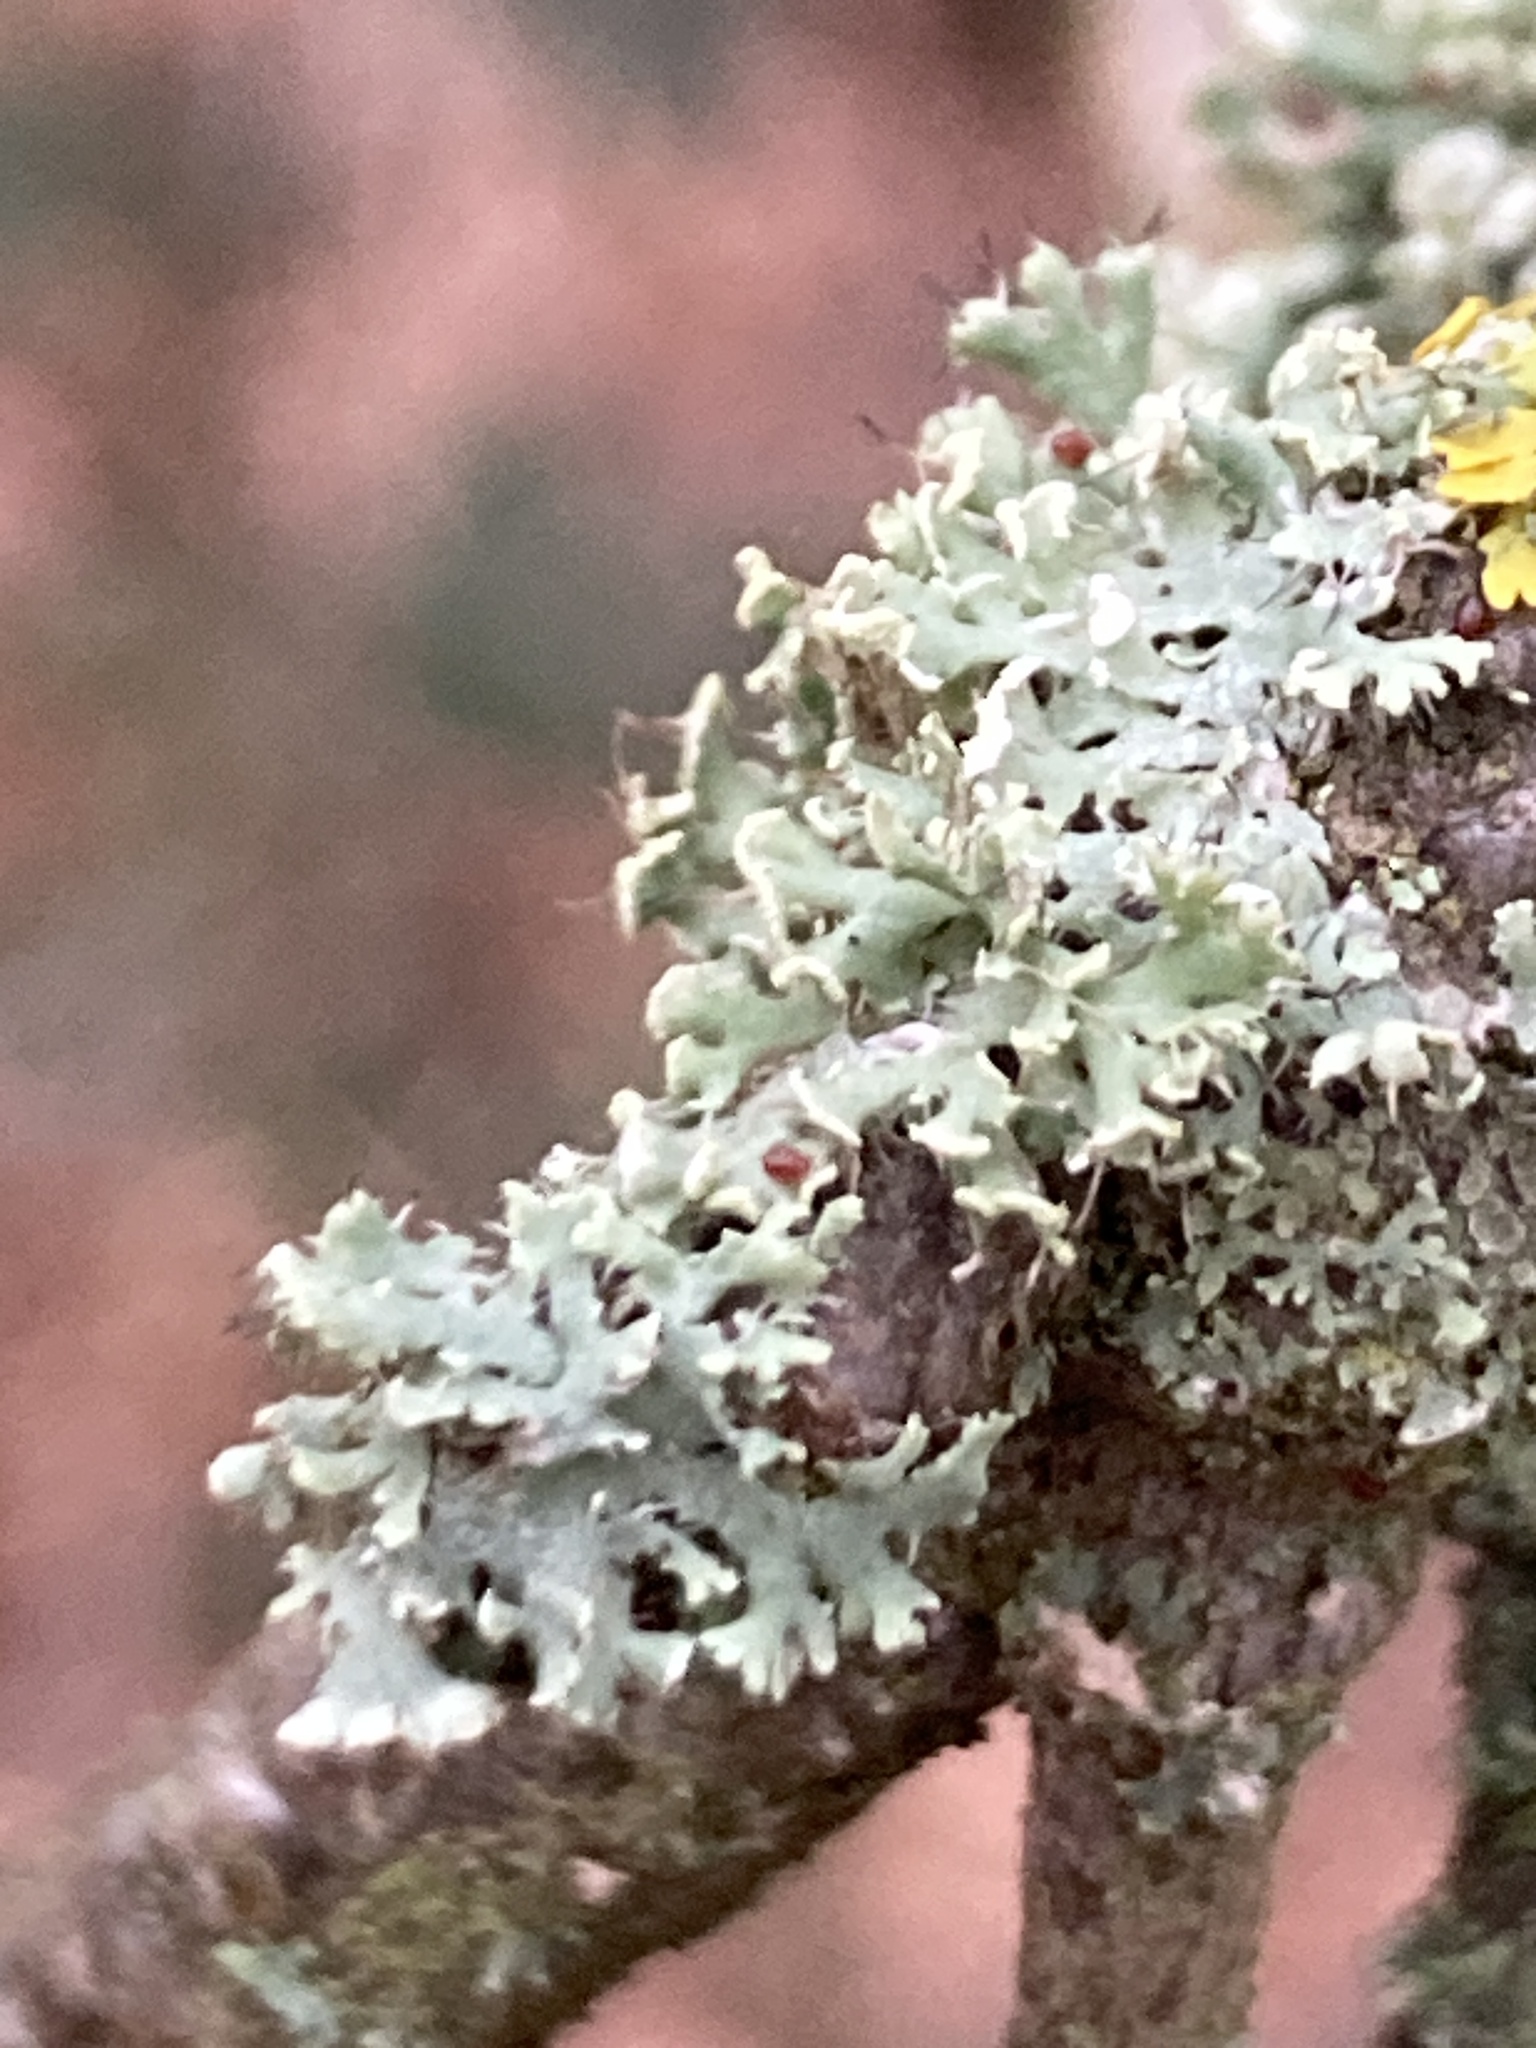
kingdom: Fungi
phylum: Ascomycota
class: Lecanoromycetes
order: Caliciales
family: Physciaceae
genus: Physcia
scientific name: Physcia tenella
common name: Fringed rosette lichen
